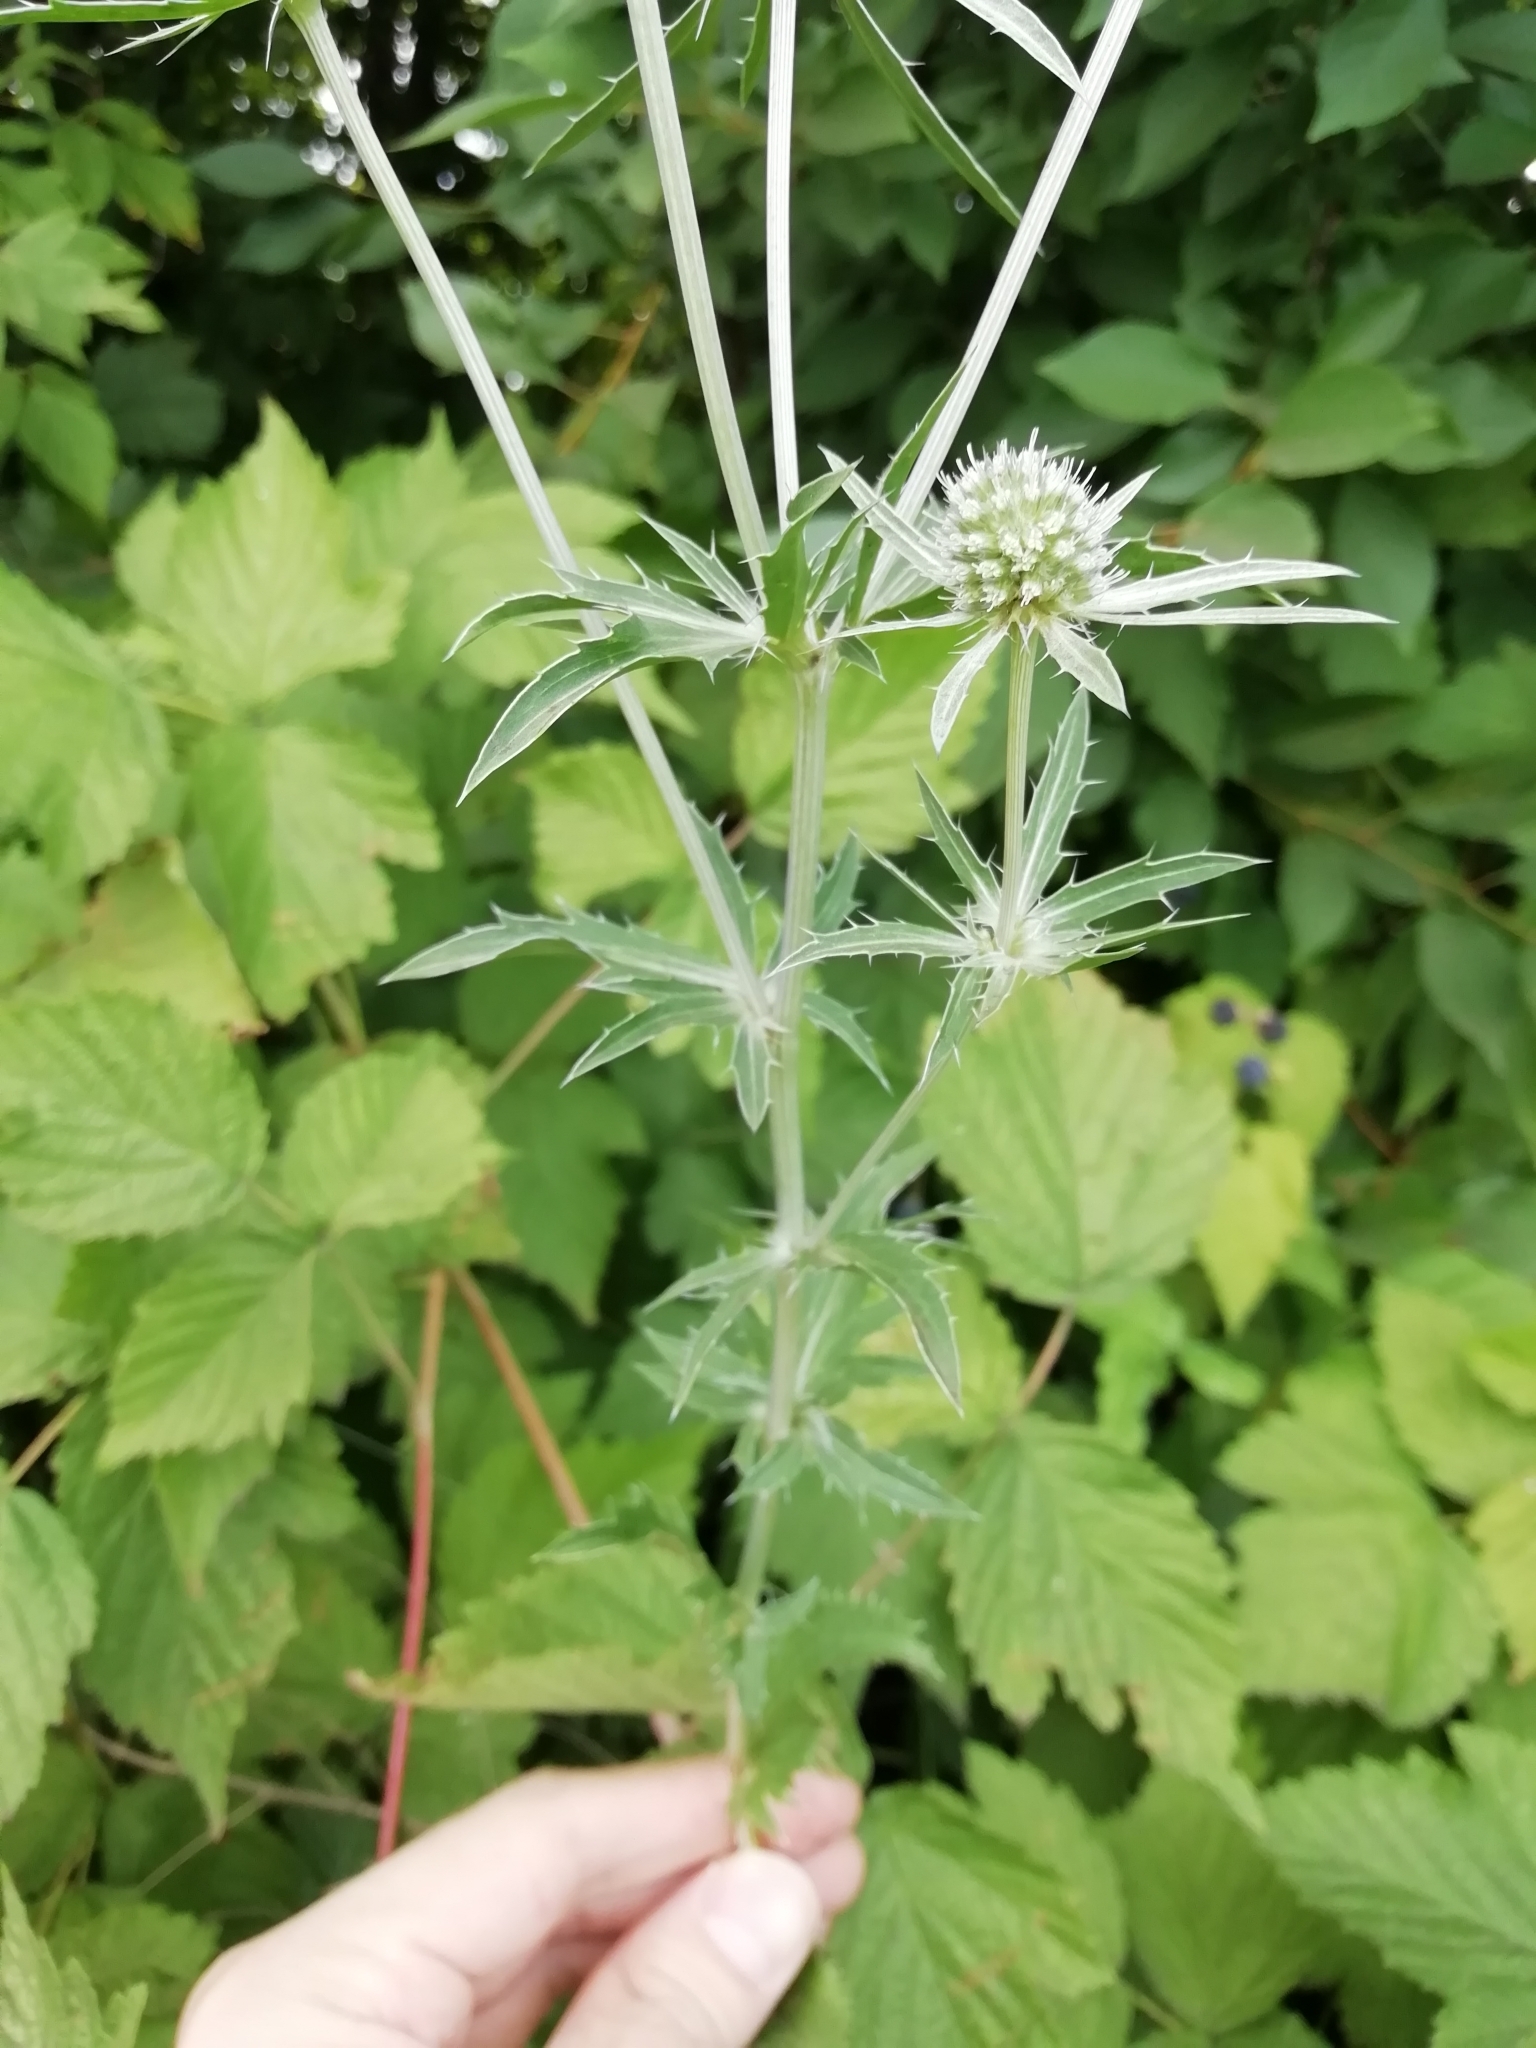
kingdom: Plantae
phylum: Tracheophyta
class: Magnoliopsida
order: Apiales
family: Apiaceae
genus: Eryngium
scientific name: Eryngium planum
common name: Blue eryngo
